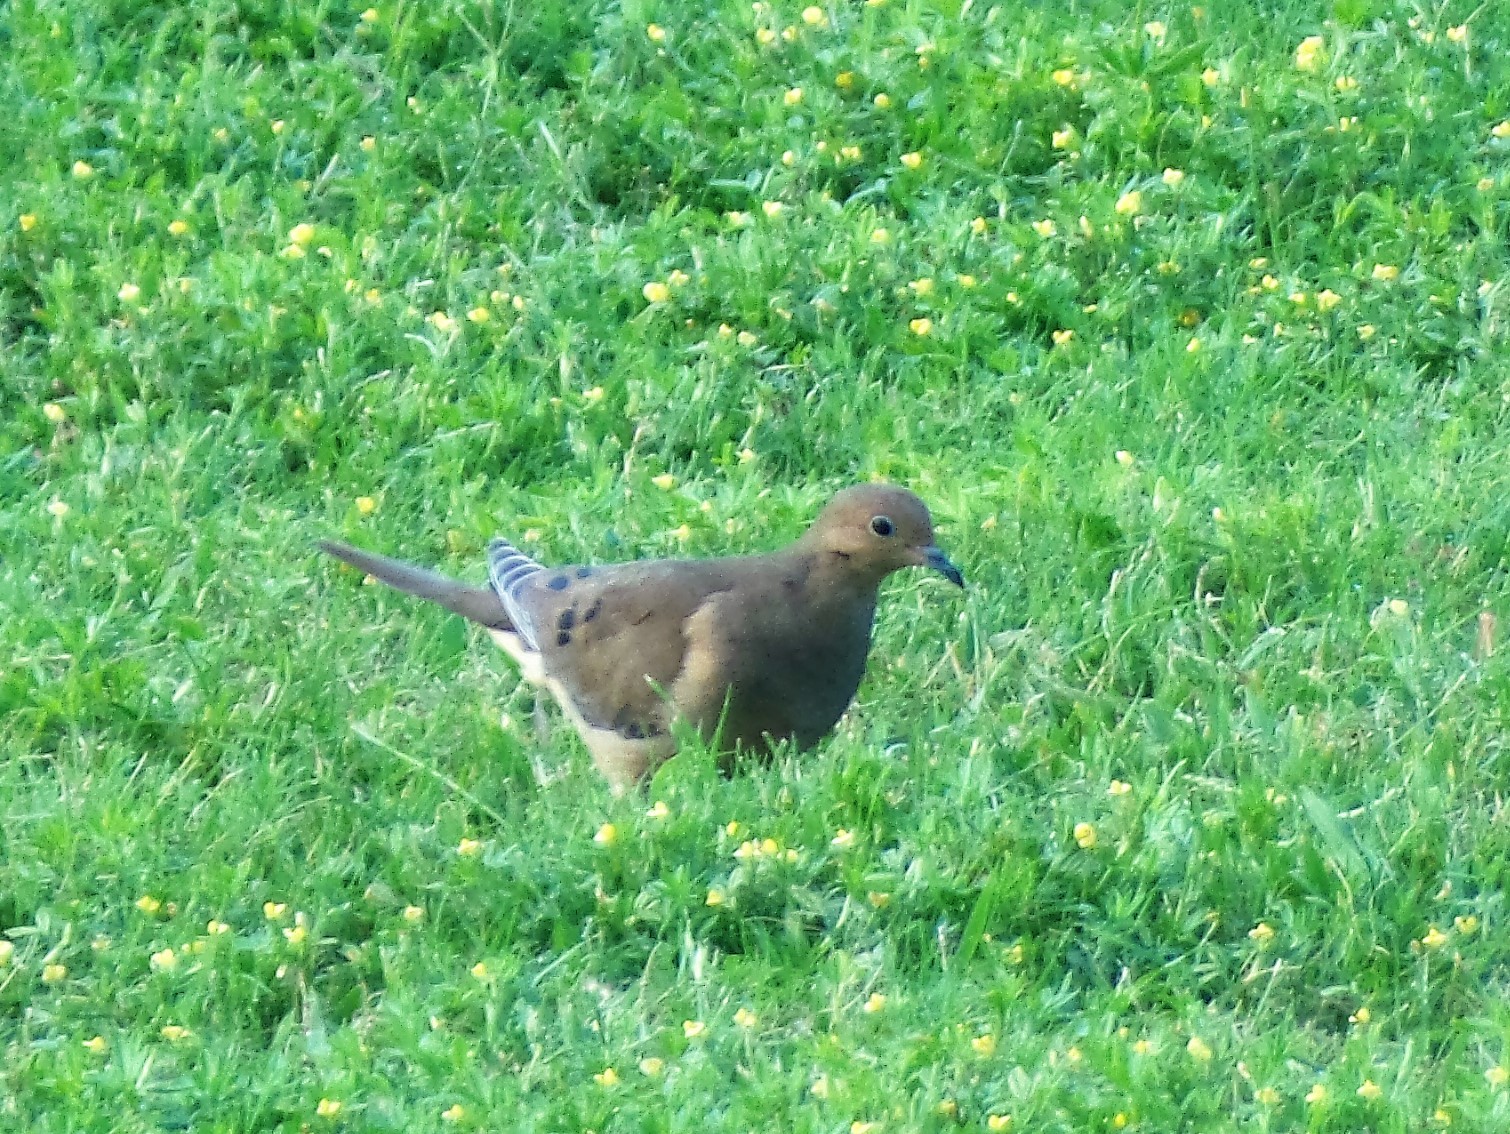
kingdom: Animalia
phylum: Chordata
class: Aves
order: Columbiformes
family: Columbidae
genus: Zenaida
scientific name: Zenaida macroura
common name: Mourning dove
